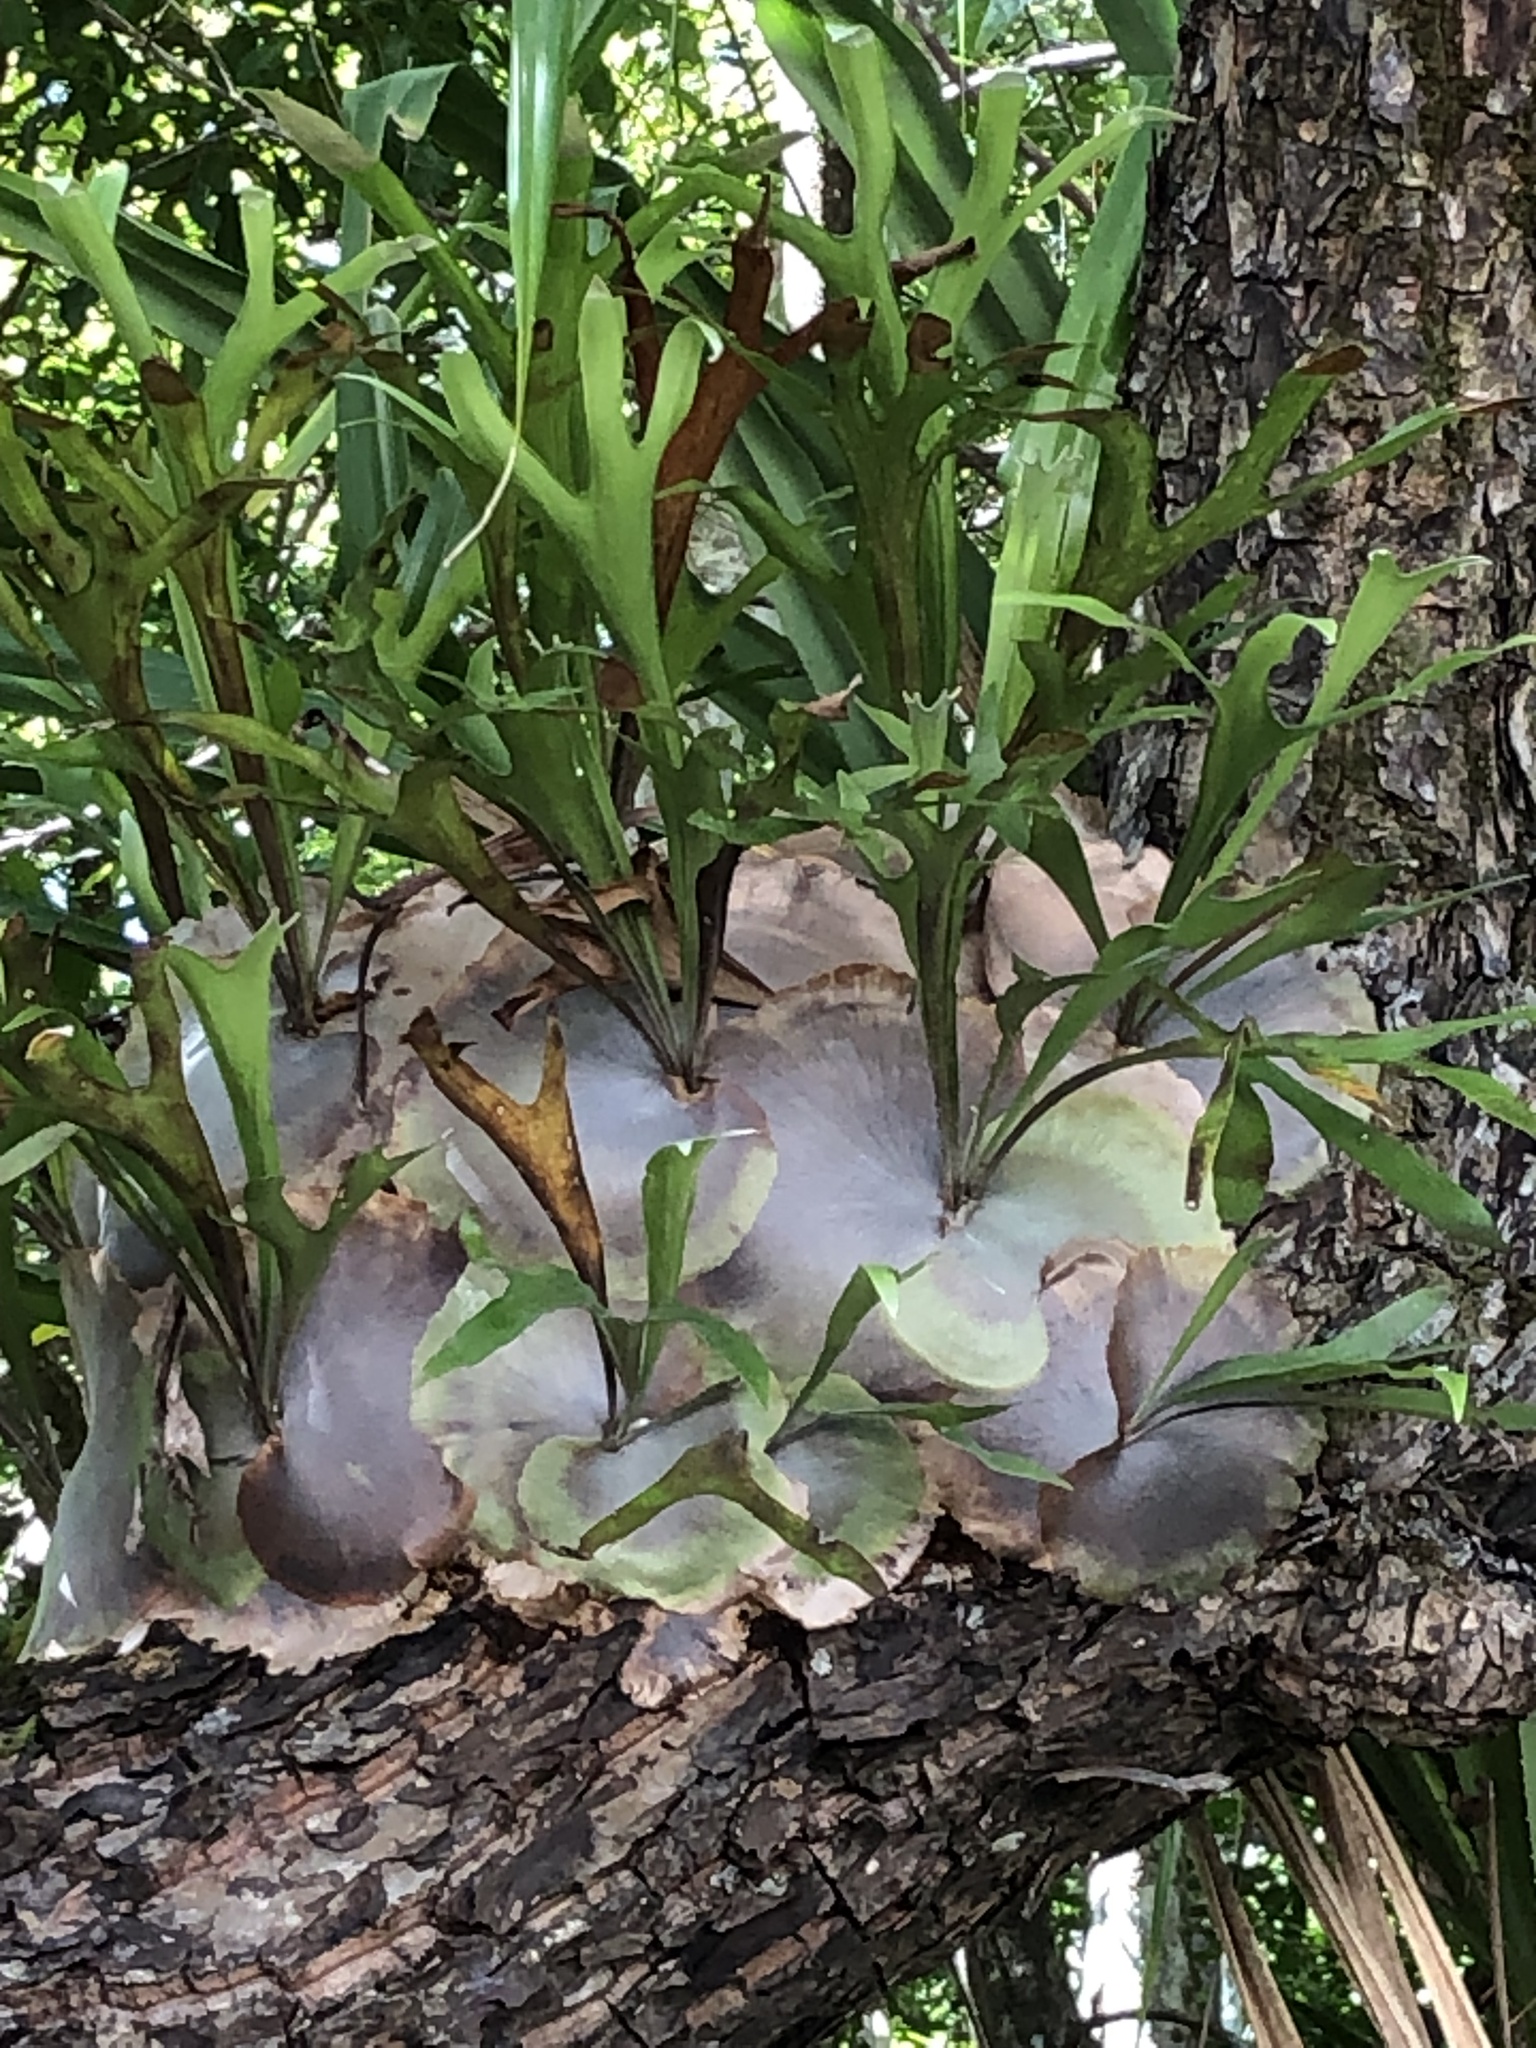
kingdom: Plantae
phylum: Tracheophyta
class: Polypodiopsida
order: Polypodiales
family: Polypodiaceae
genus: Platycerium
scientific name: Platycerium hillii
